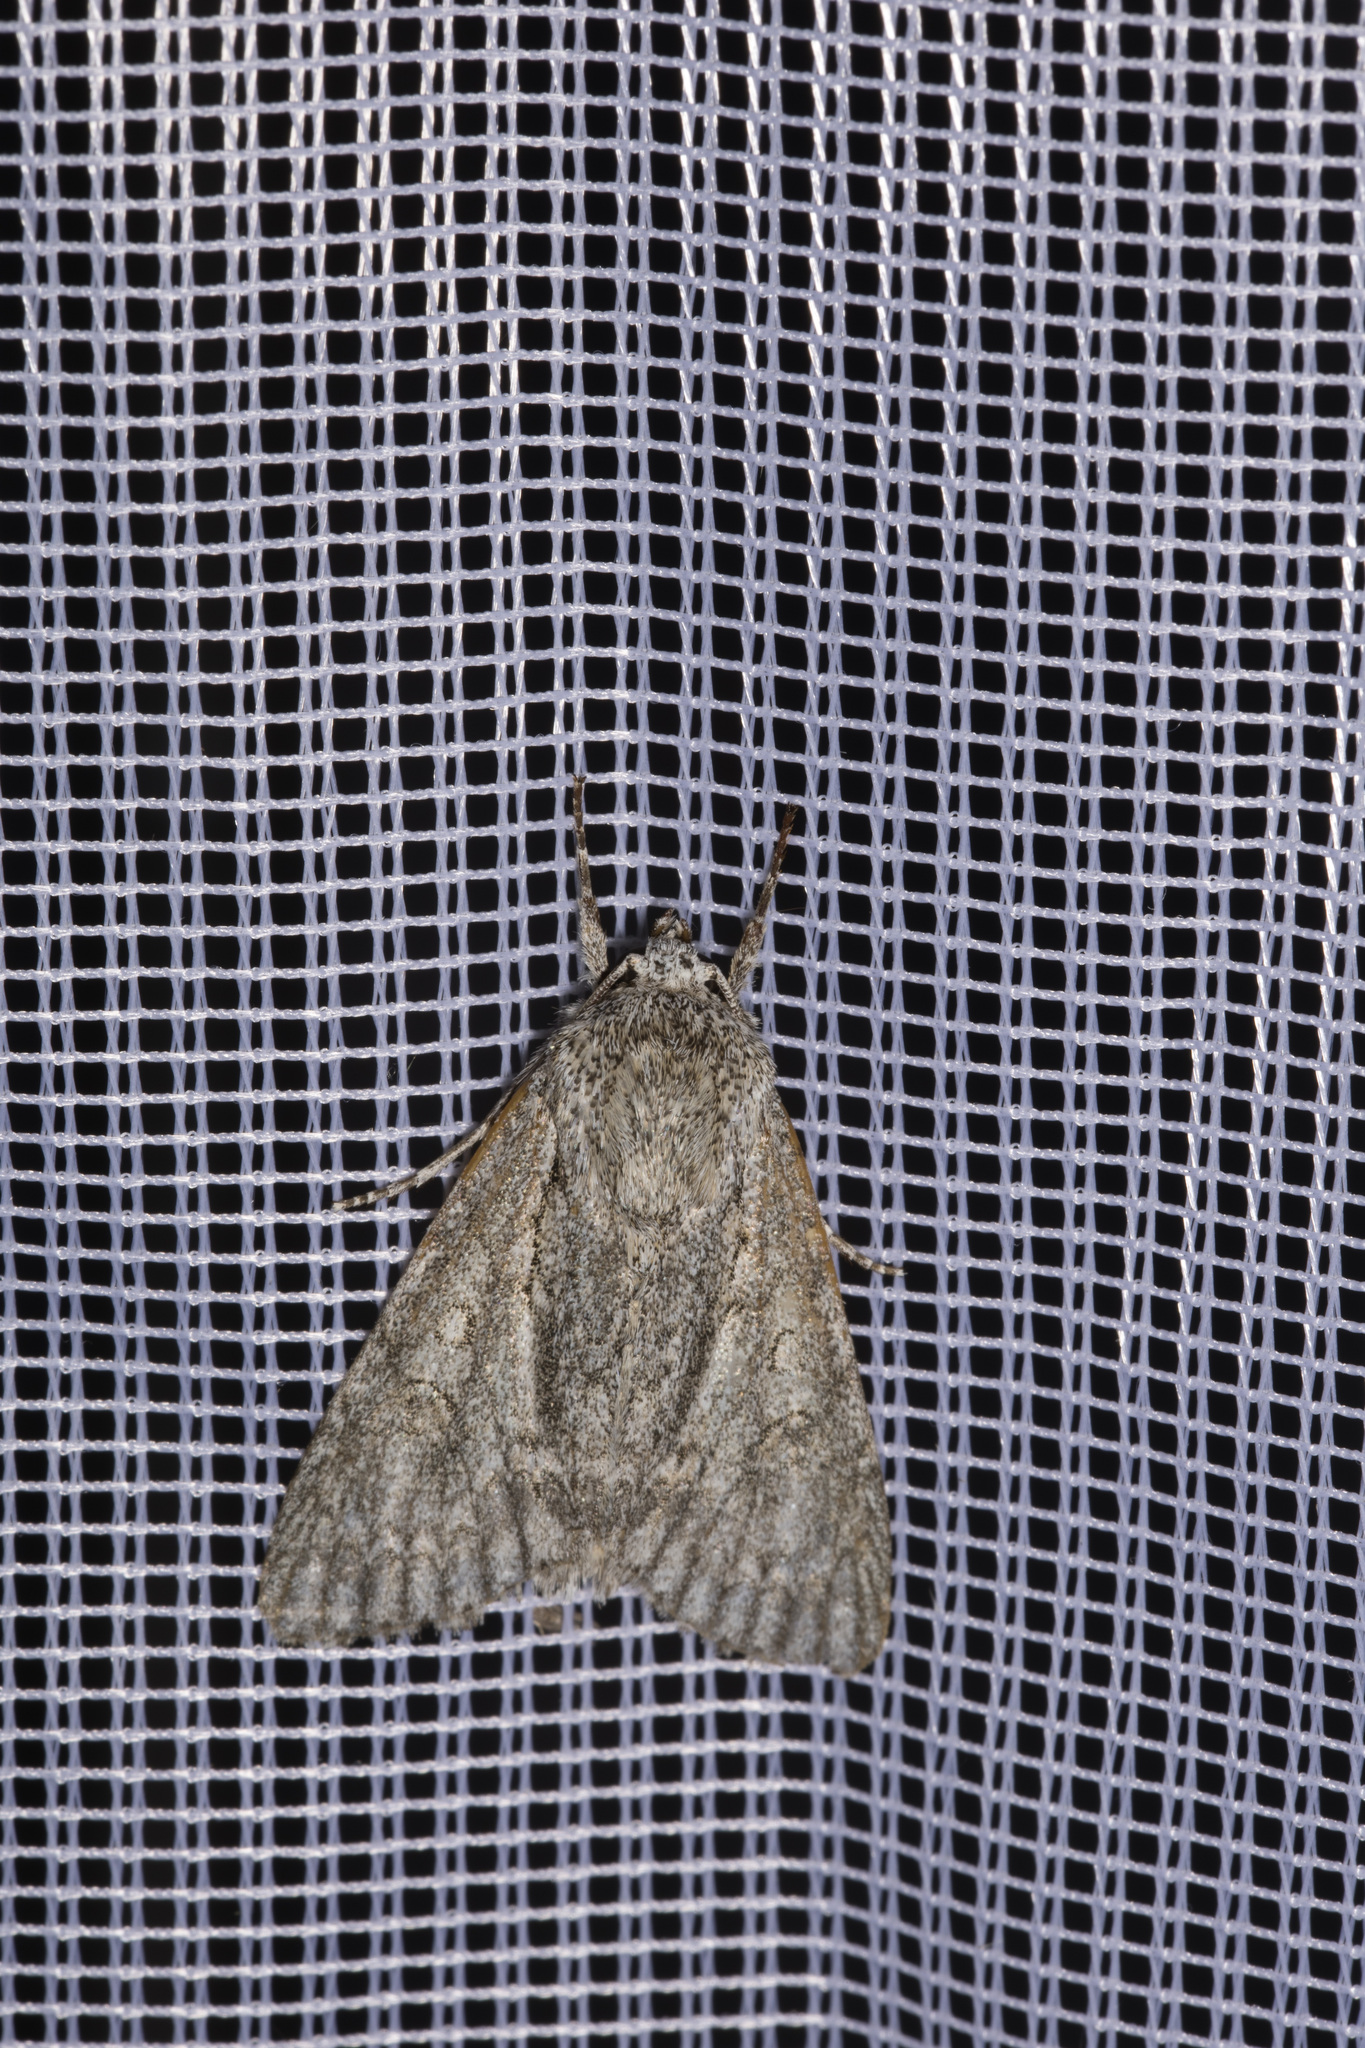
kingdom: Animalia
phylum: Arthropoda
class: Insecta
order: Lepidoptera
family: Noctuidae
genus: Acronicta
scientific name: Acronicta aceris
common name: Sycamore
